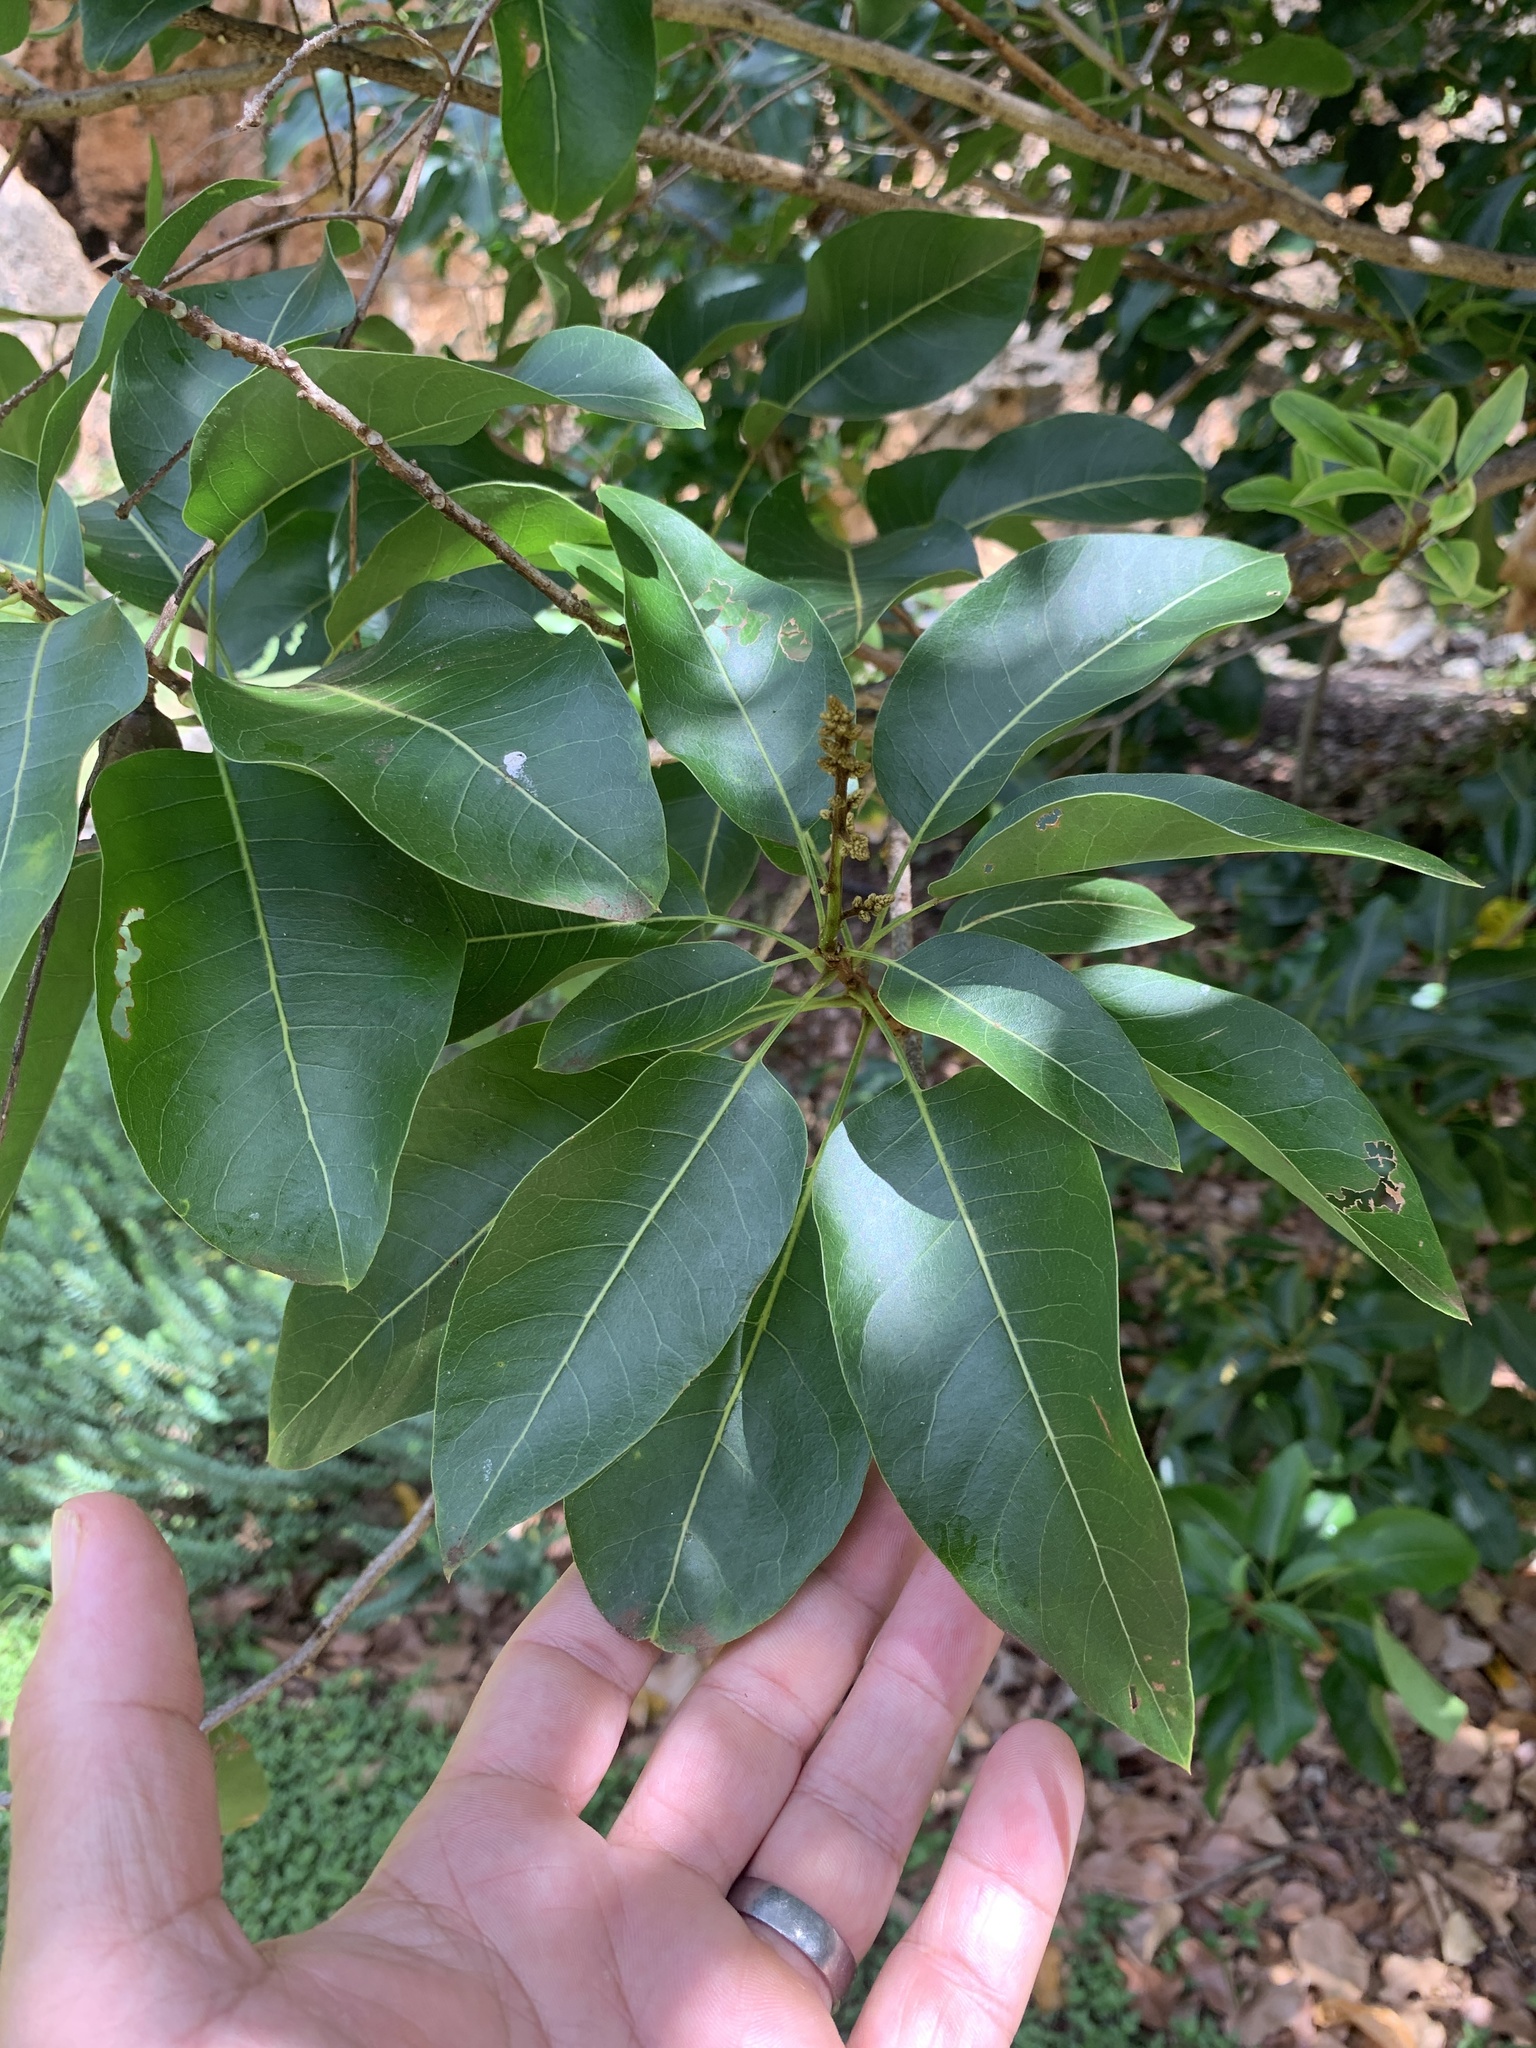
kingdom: Plantae
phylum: Tracheophyta
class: Magnoliopsida
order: Sapindales
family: Sapindaceae
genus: Sapindus
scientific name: Sapindus oahuensis
